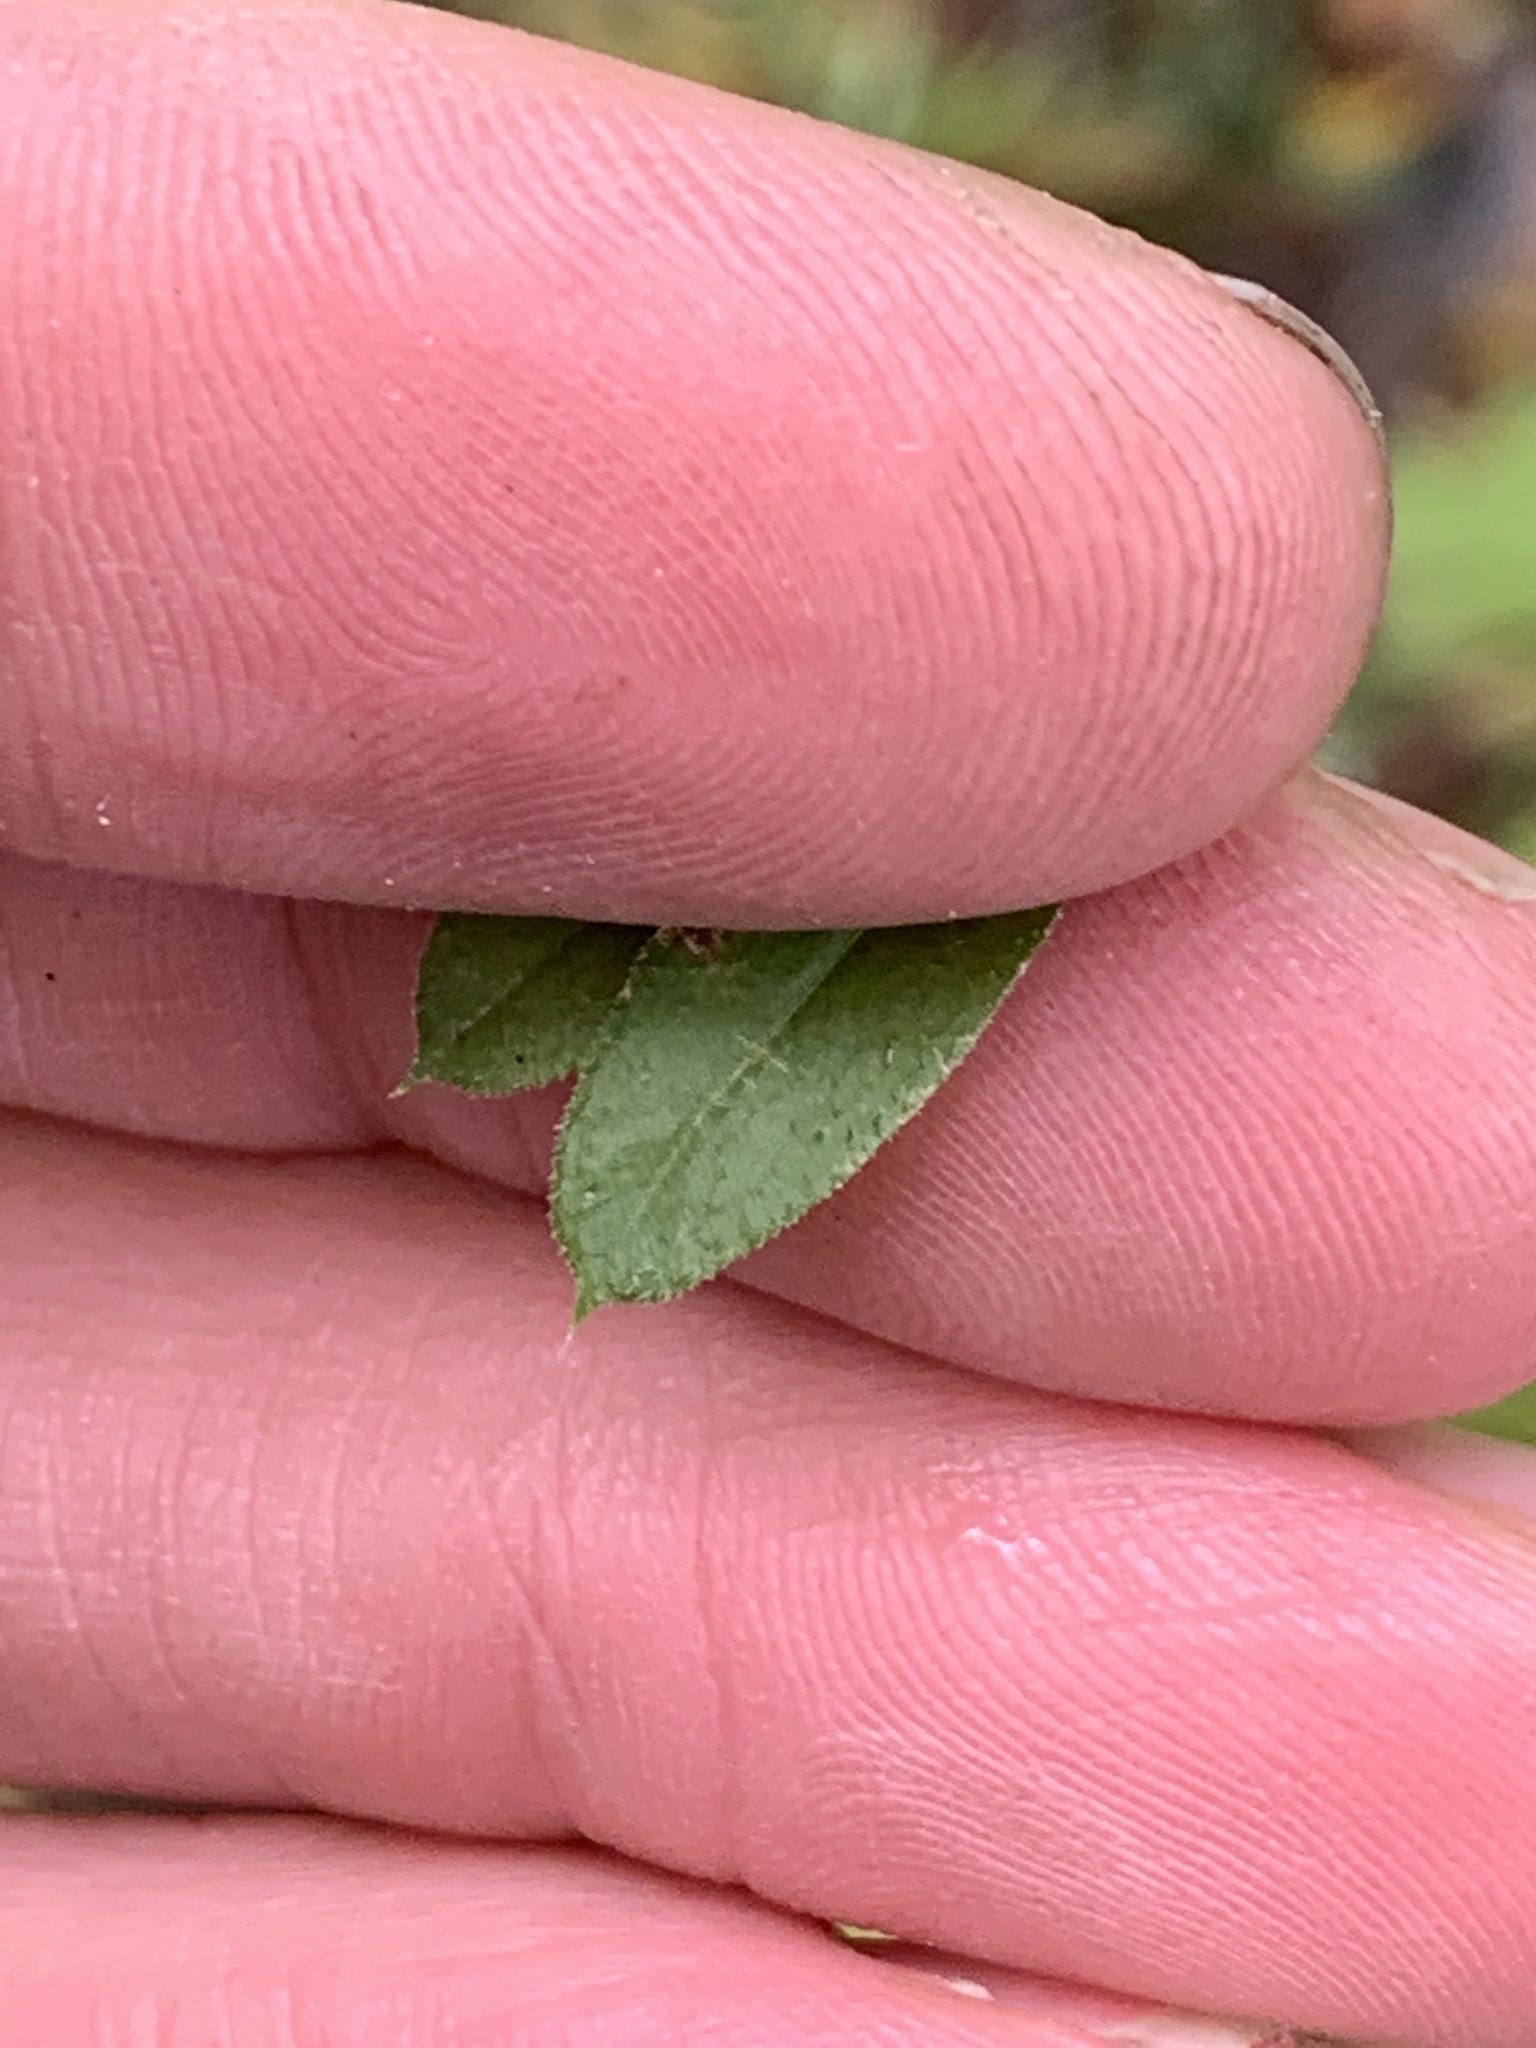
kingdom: Plantae
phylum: Tracheophyta
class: Magnoliopsida
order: Gentianales
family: Rubiaceae
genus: Galium
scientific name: Galium triflorum
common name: Fragrant bedstraw
